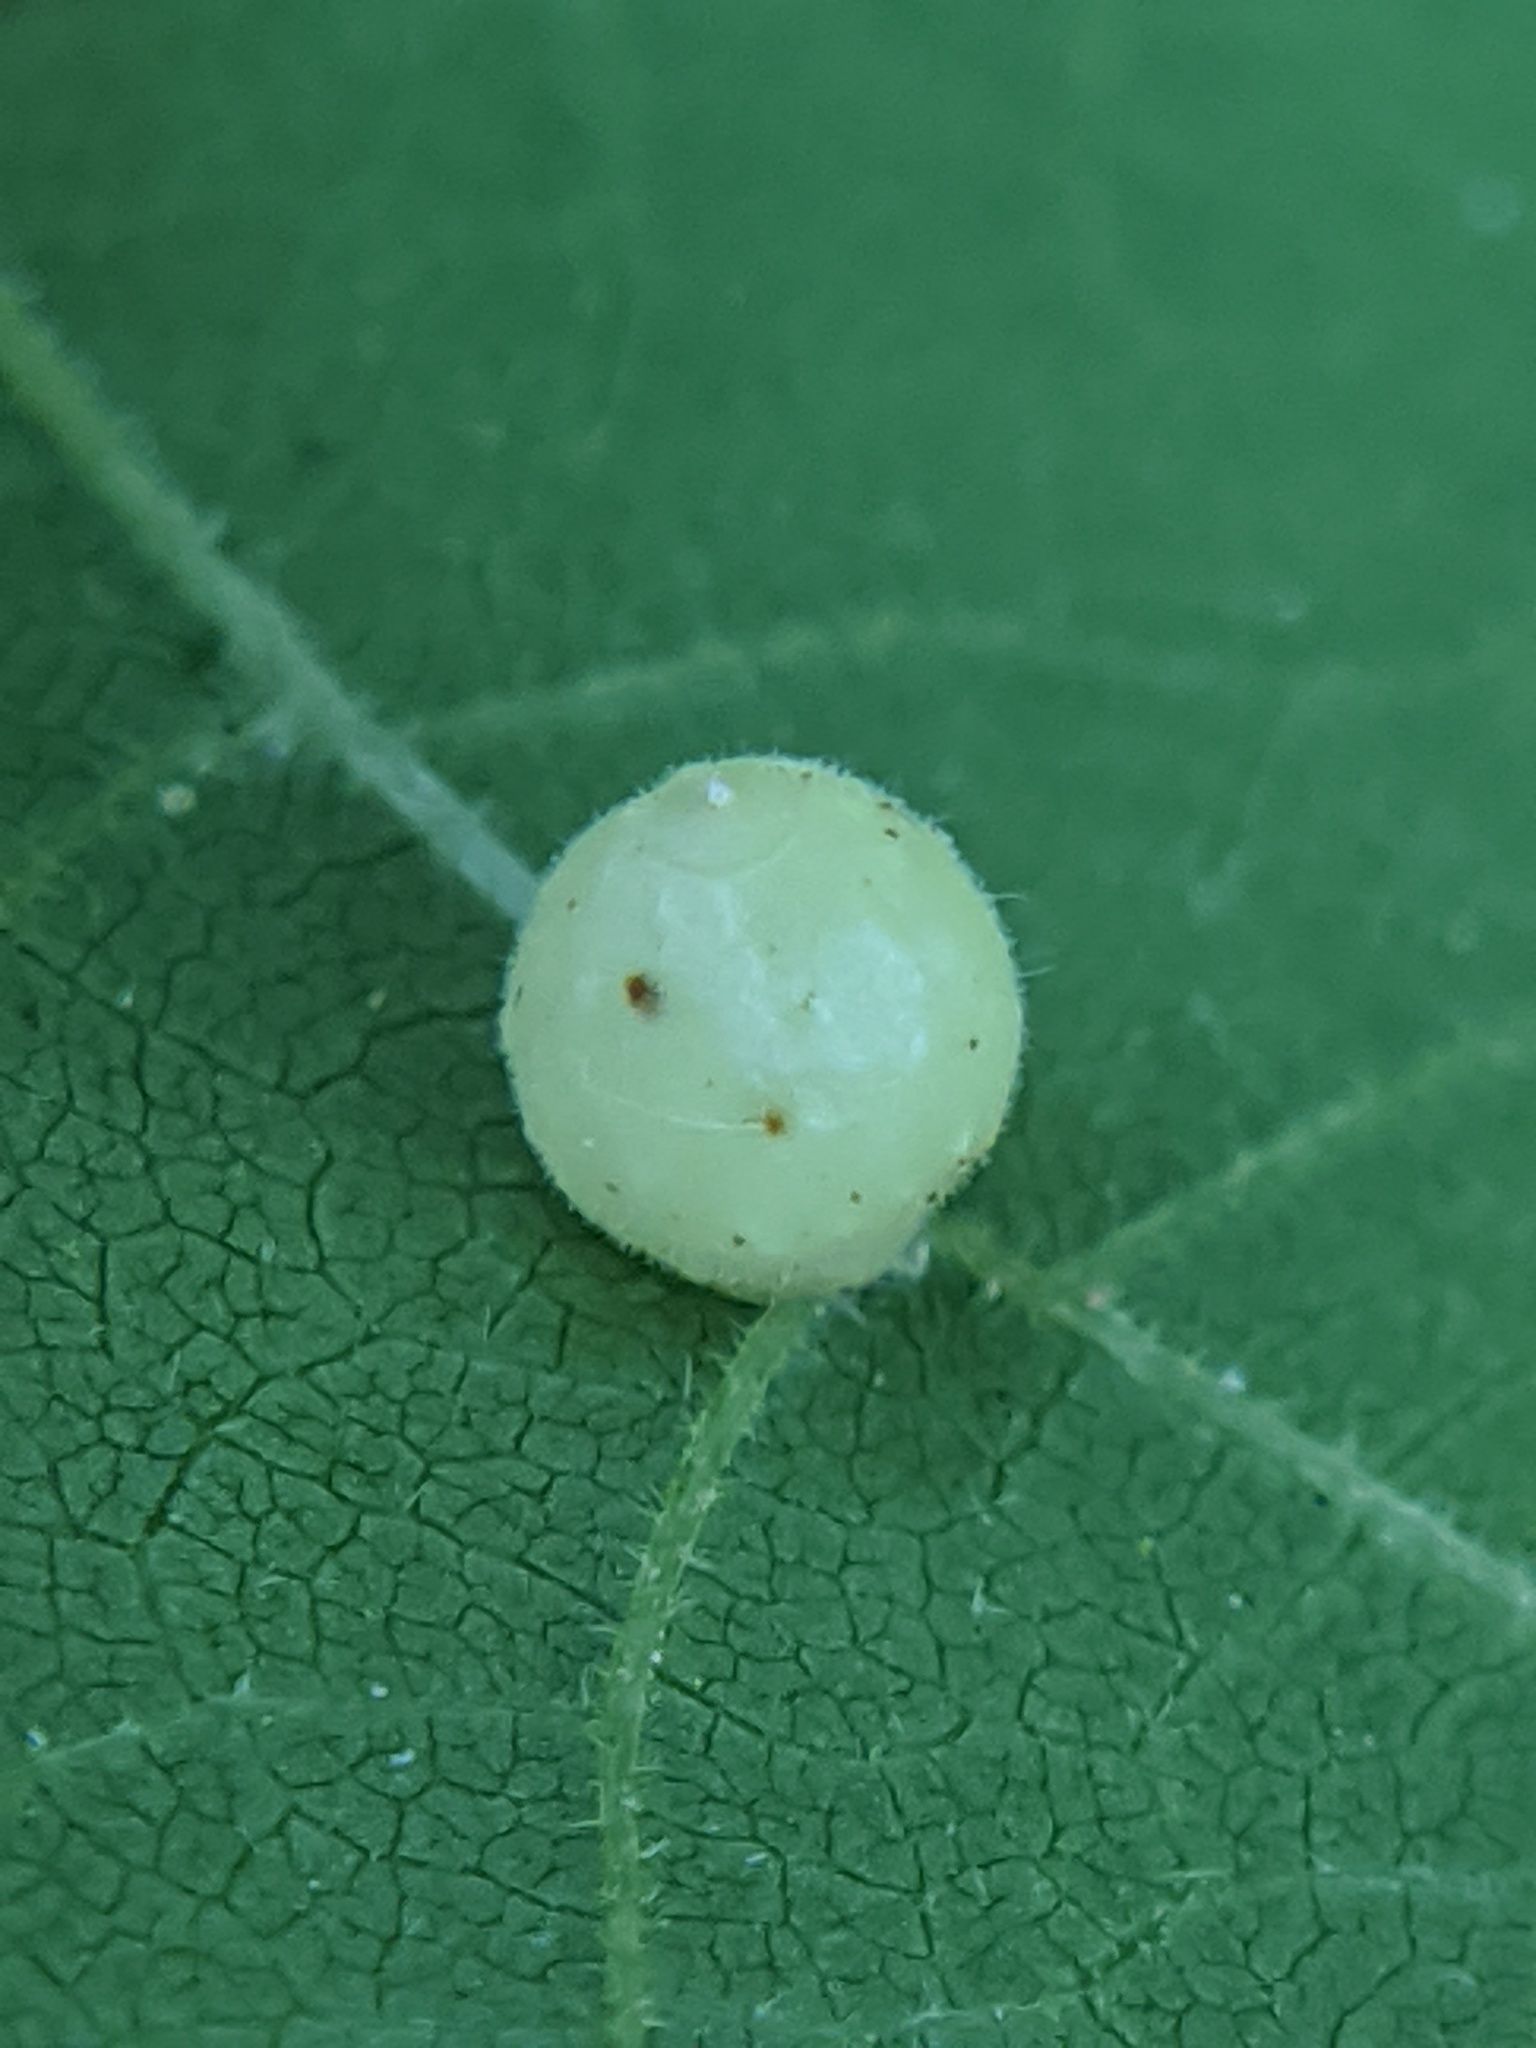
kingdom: Animalia
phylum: Arthropoda
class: Insecta
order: Diptera
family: Cecidomyiidae
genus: Caryomyia
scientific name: Caryomyia cilidolium
